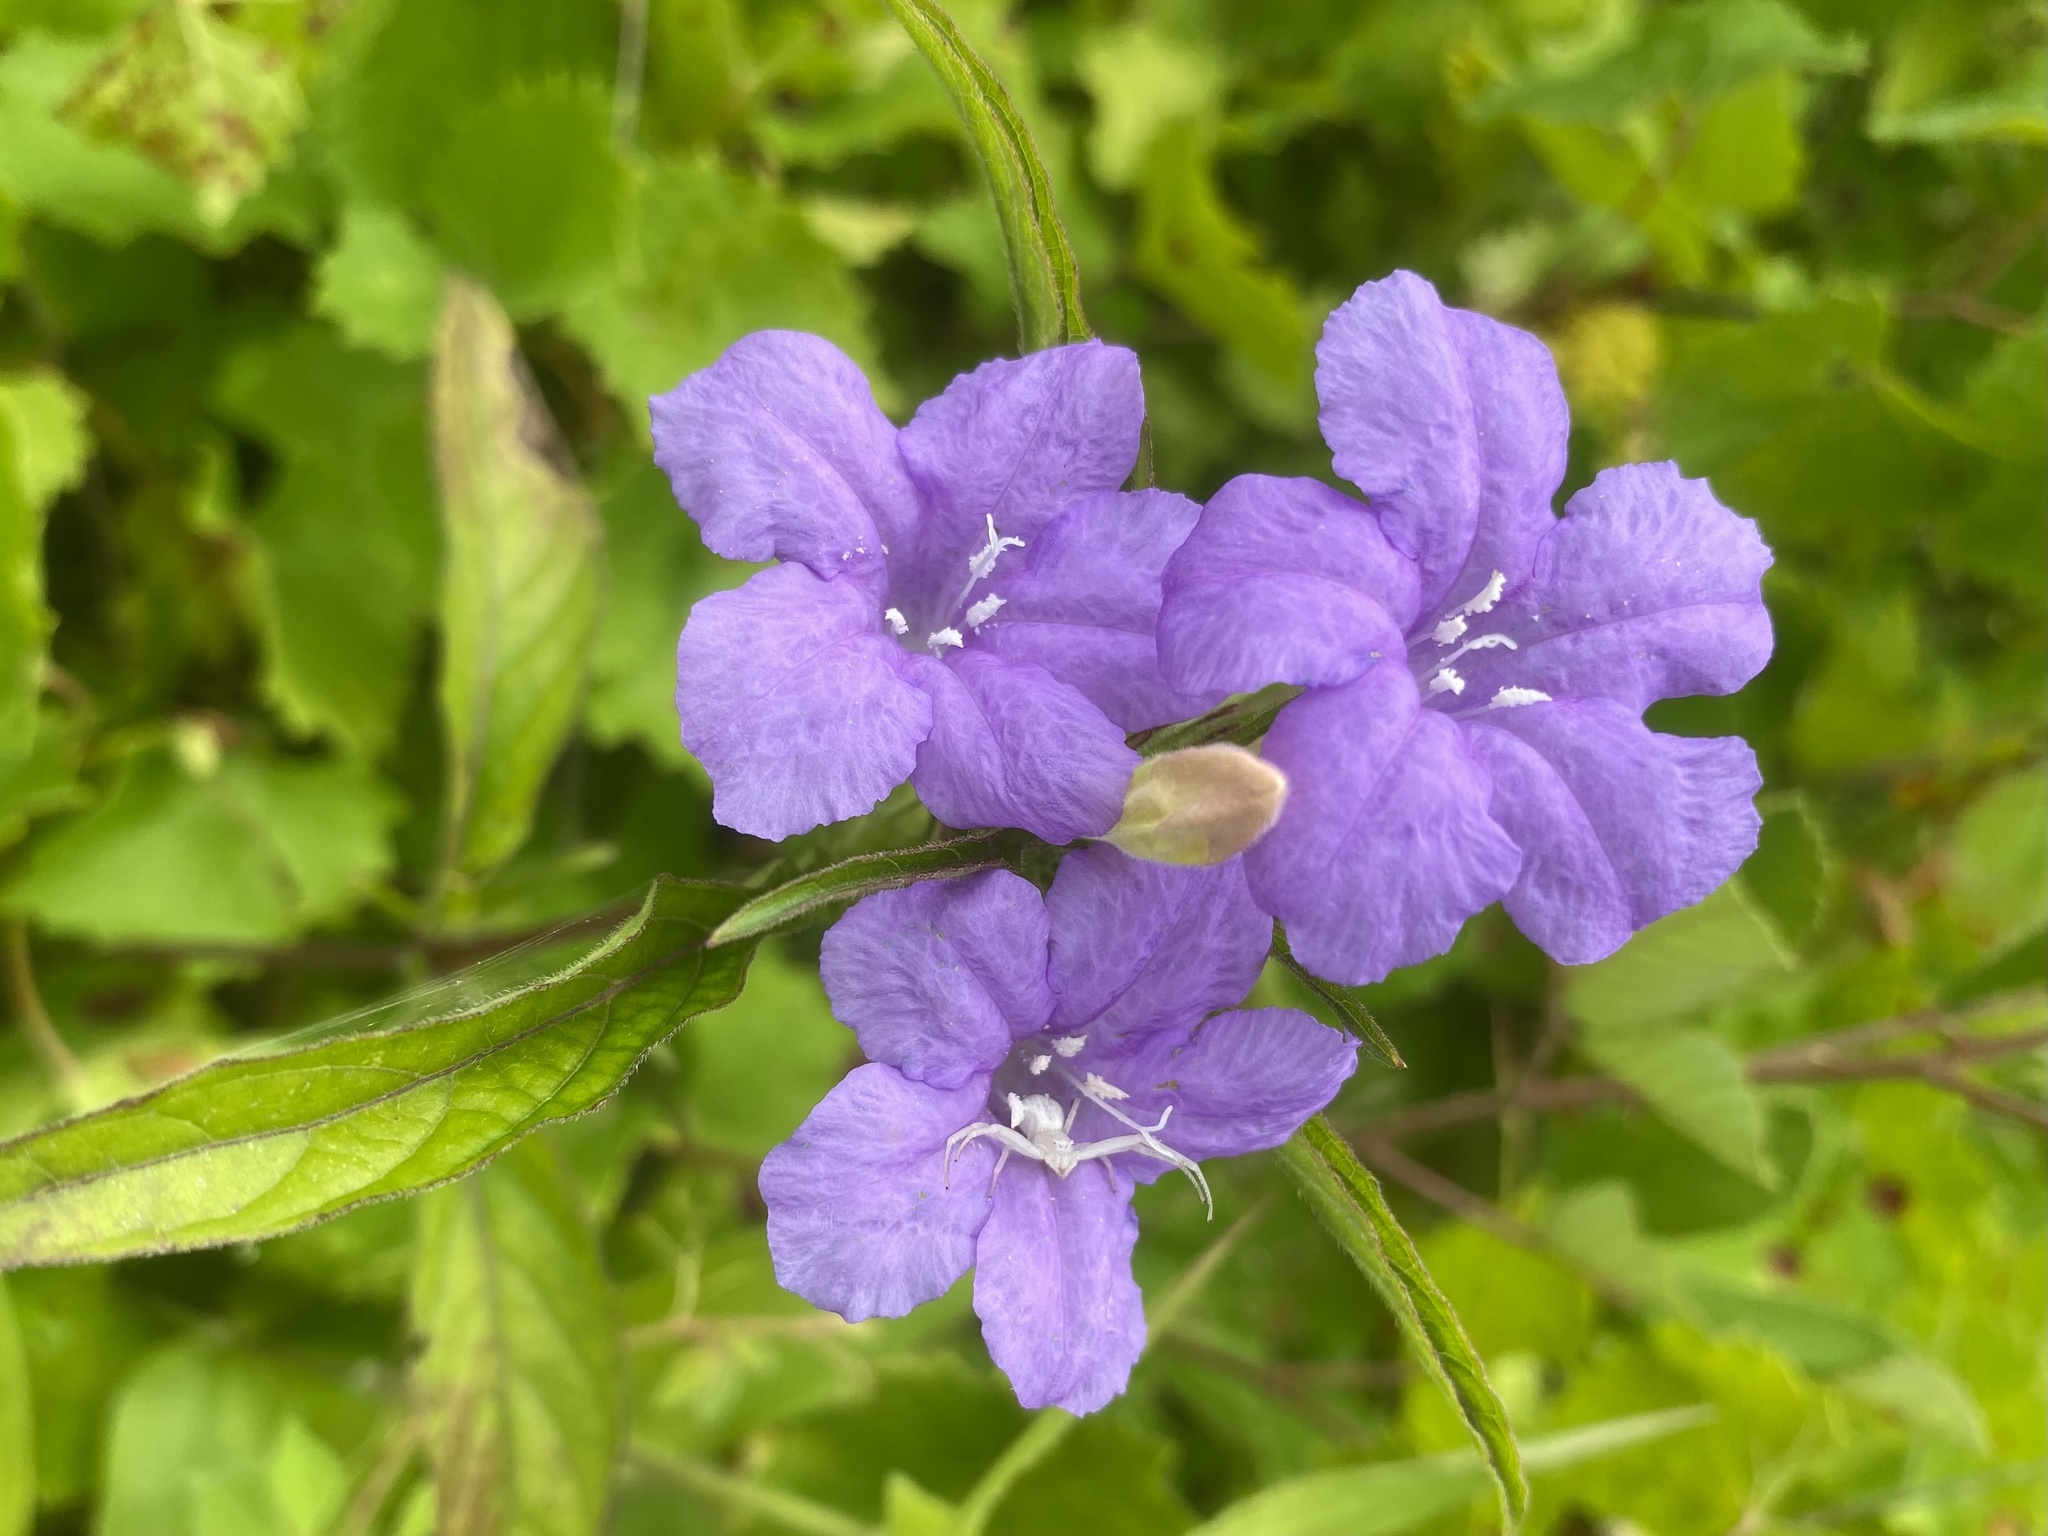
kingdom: Plantae
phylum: Tracheophyta
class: Magnoliopsida
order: Lamiales
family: Acanthaceae
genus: Ruellia
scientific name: Ruellia caroliniensis
